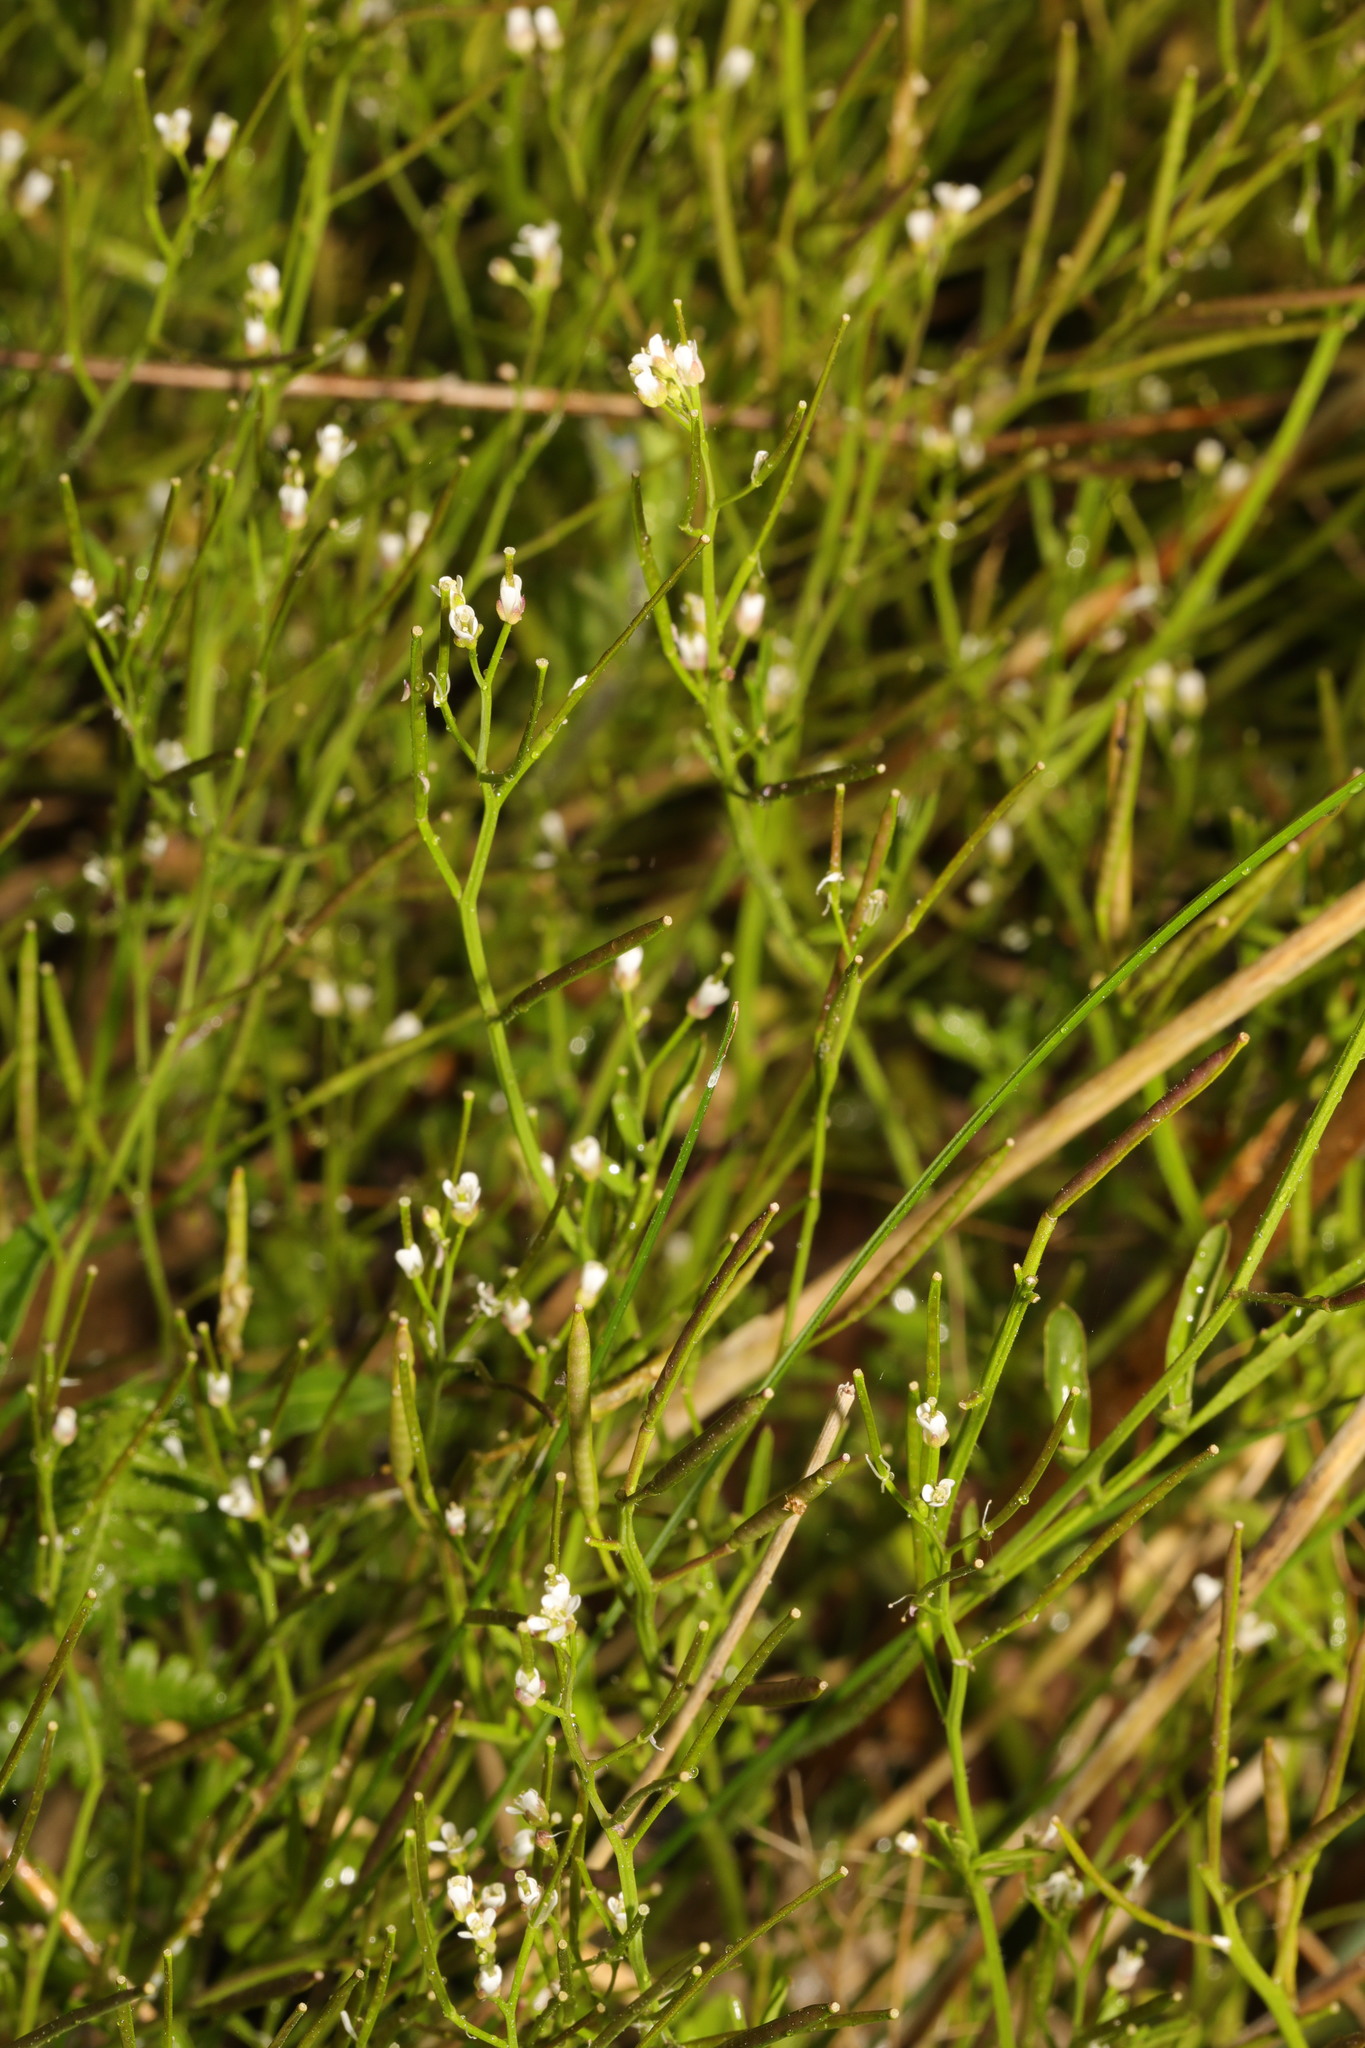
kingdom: Plantae
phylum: Tracheophyta
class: Magnoliopsida
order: Brassicales
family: Brassicaceae
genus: Cardamine
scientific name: Cardamine flexuosa
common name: Woodland bittercress
